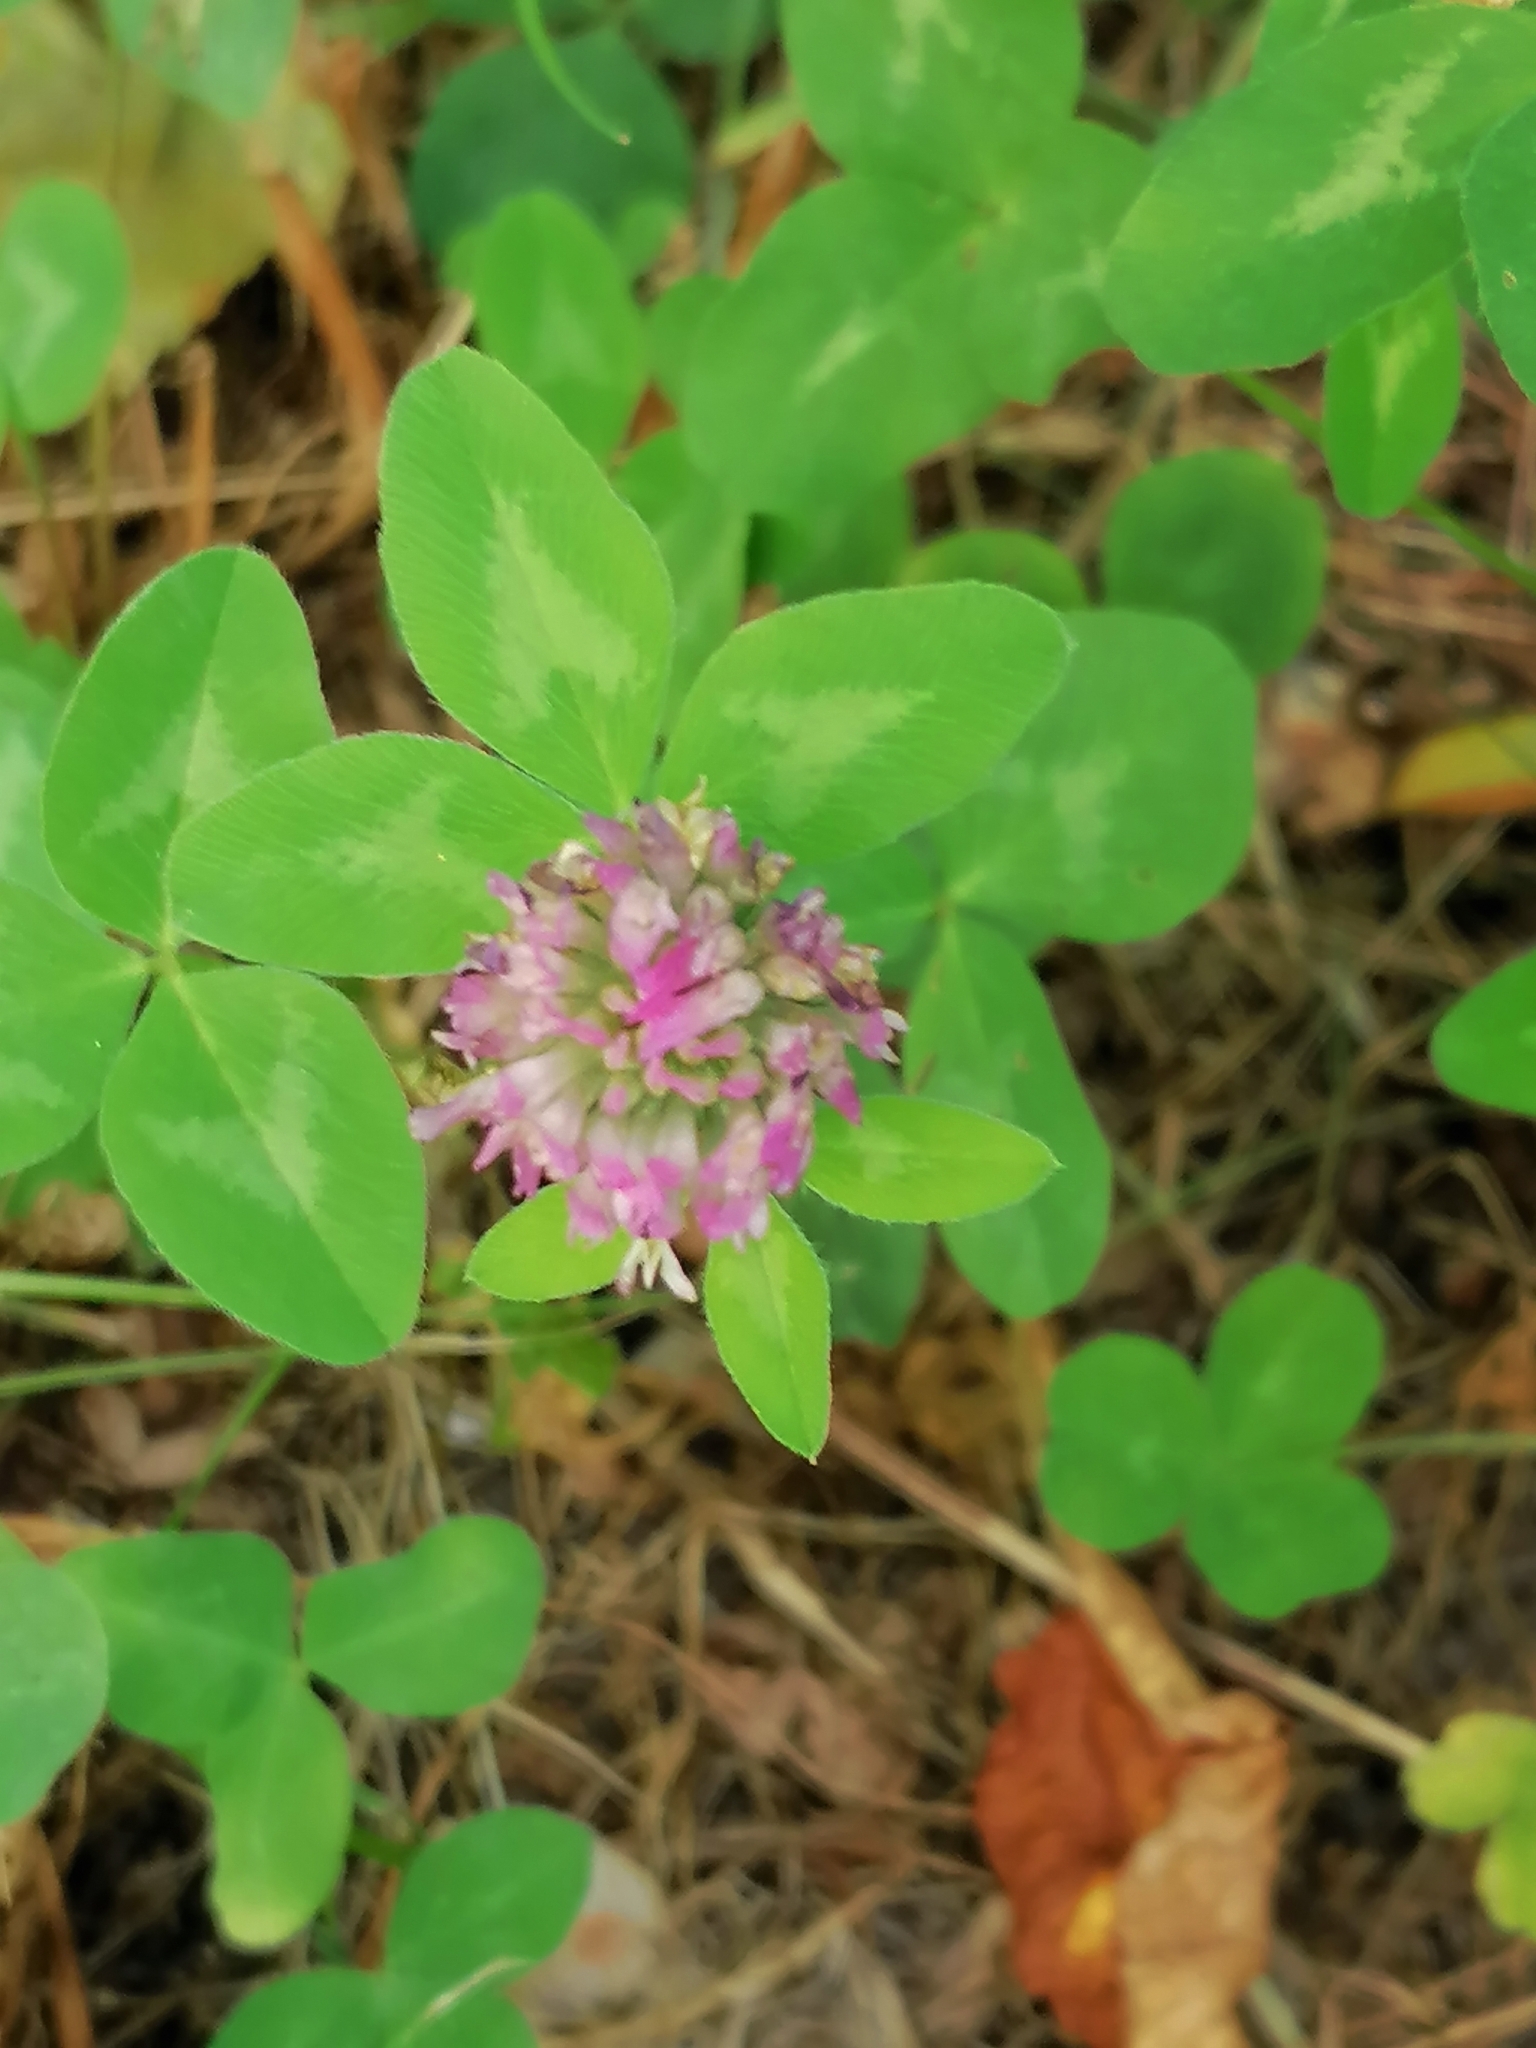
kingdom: Plantae
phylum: Tracheophyta
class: Magnoliopsida
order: Fabales
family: Fabaceae
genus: Trifolium
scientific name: Trifolium pratense
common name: Red clover
